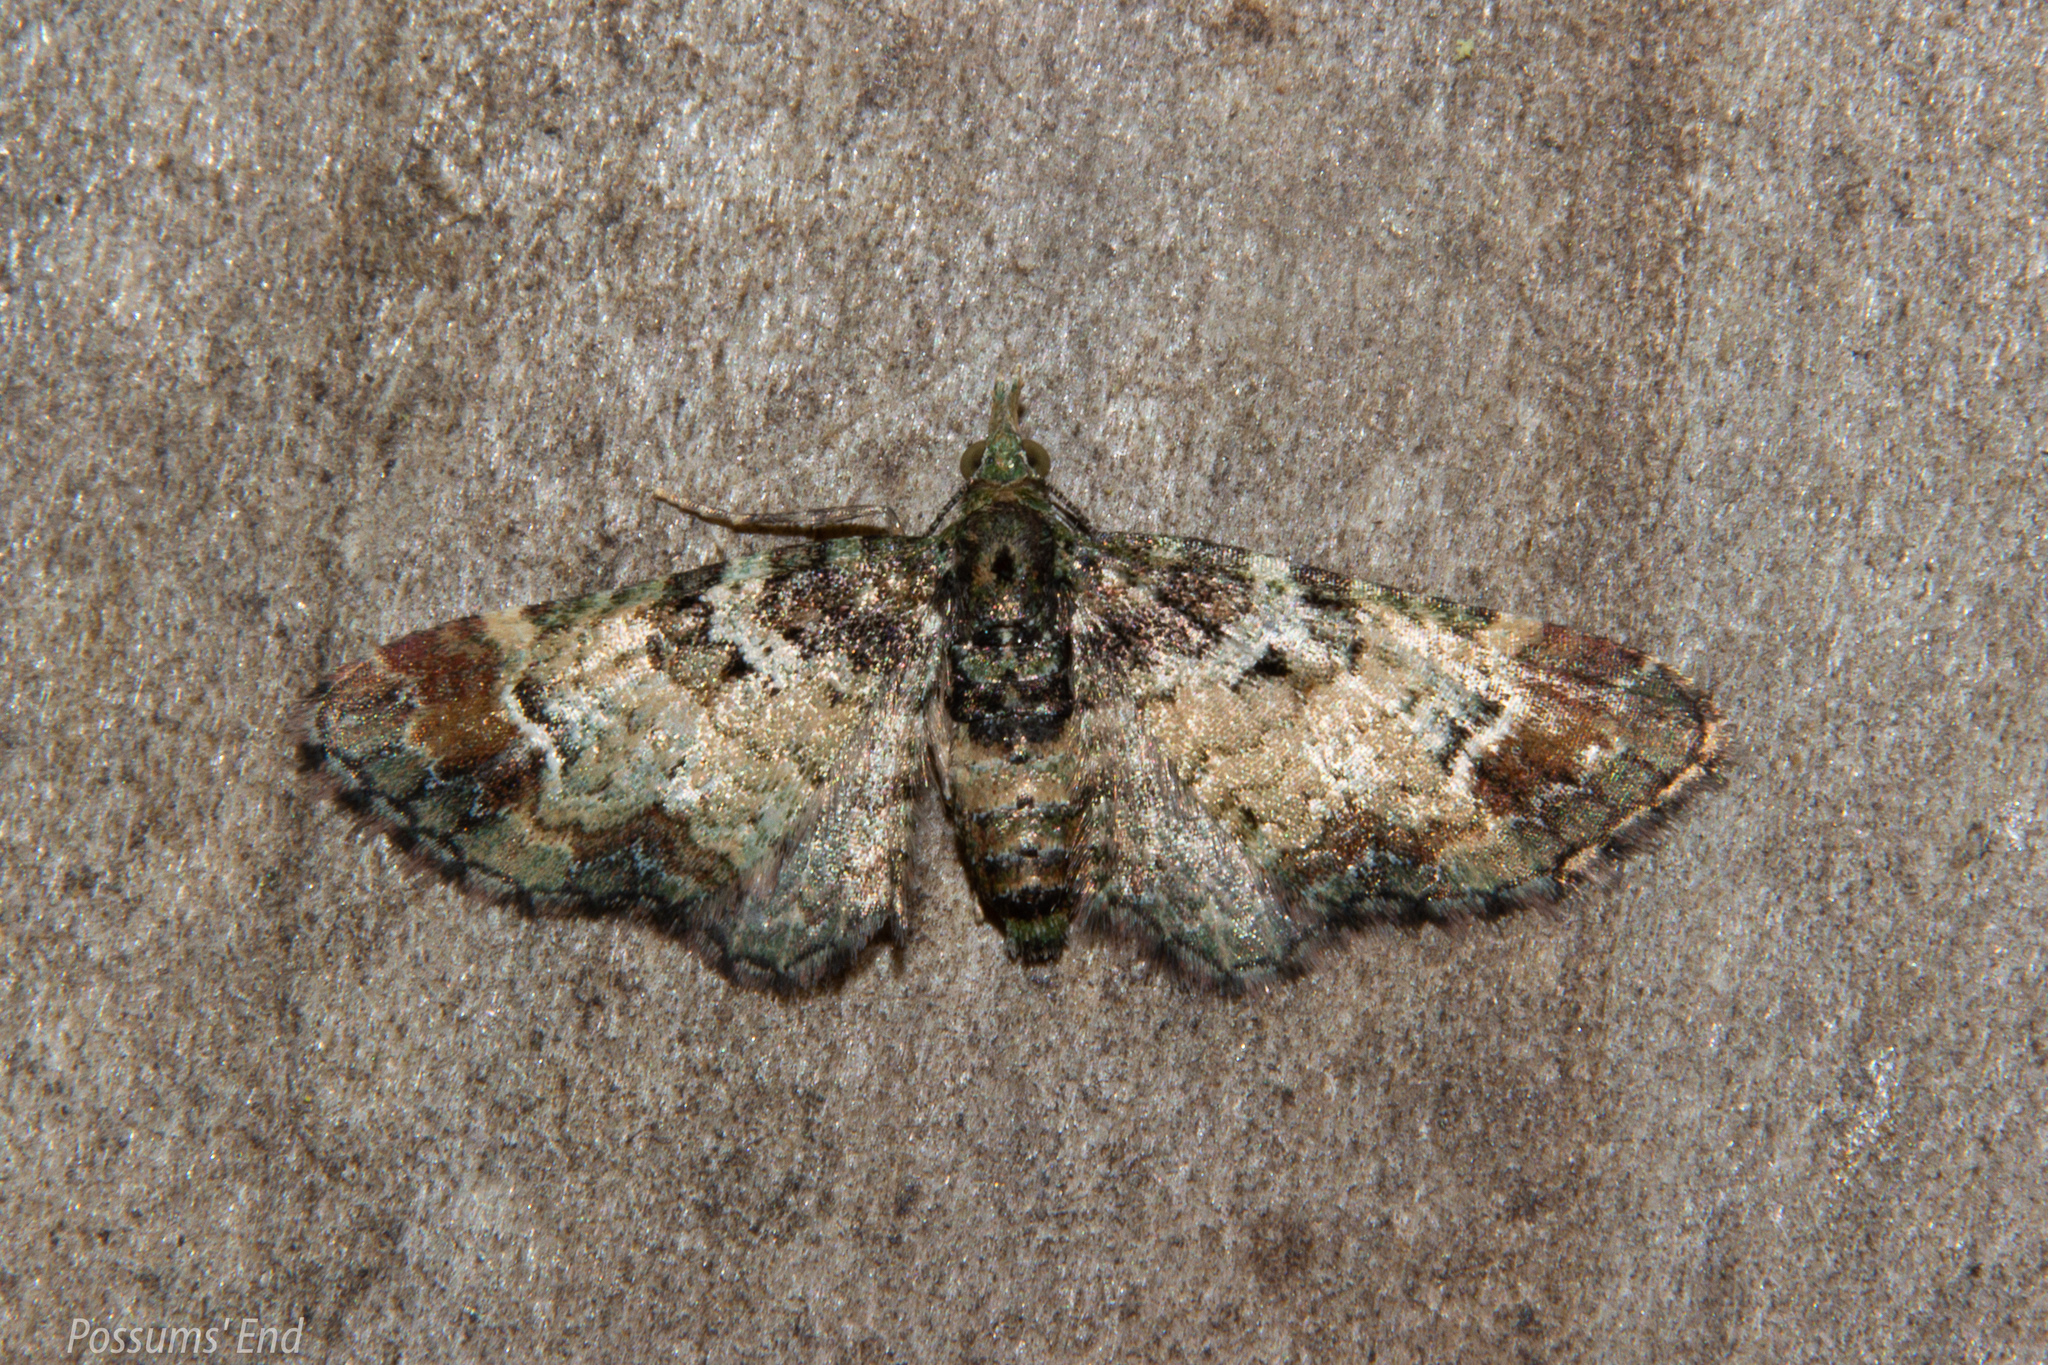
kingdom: Animalia
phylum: Arthropoda
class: Insecta
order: Lepidoptera
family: Geometridae
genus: Pasiphila
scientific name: Pasiphila sandycias
